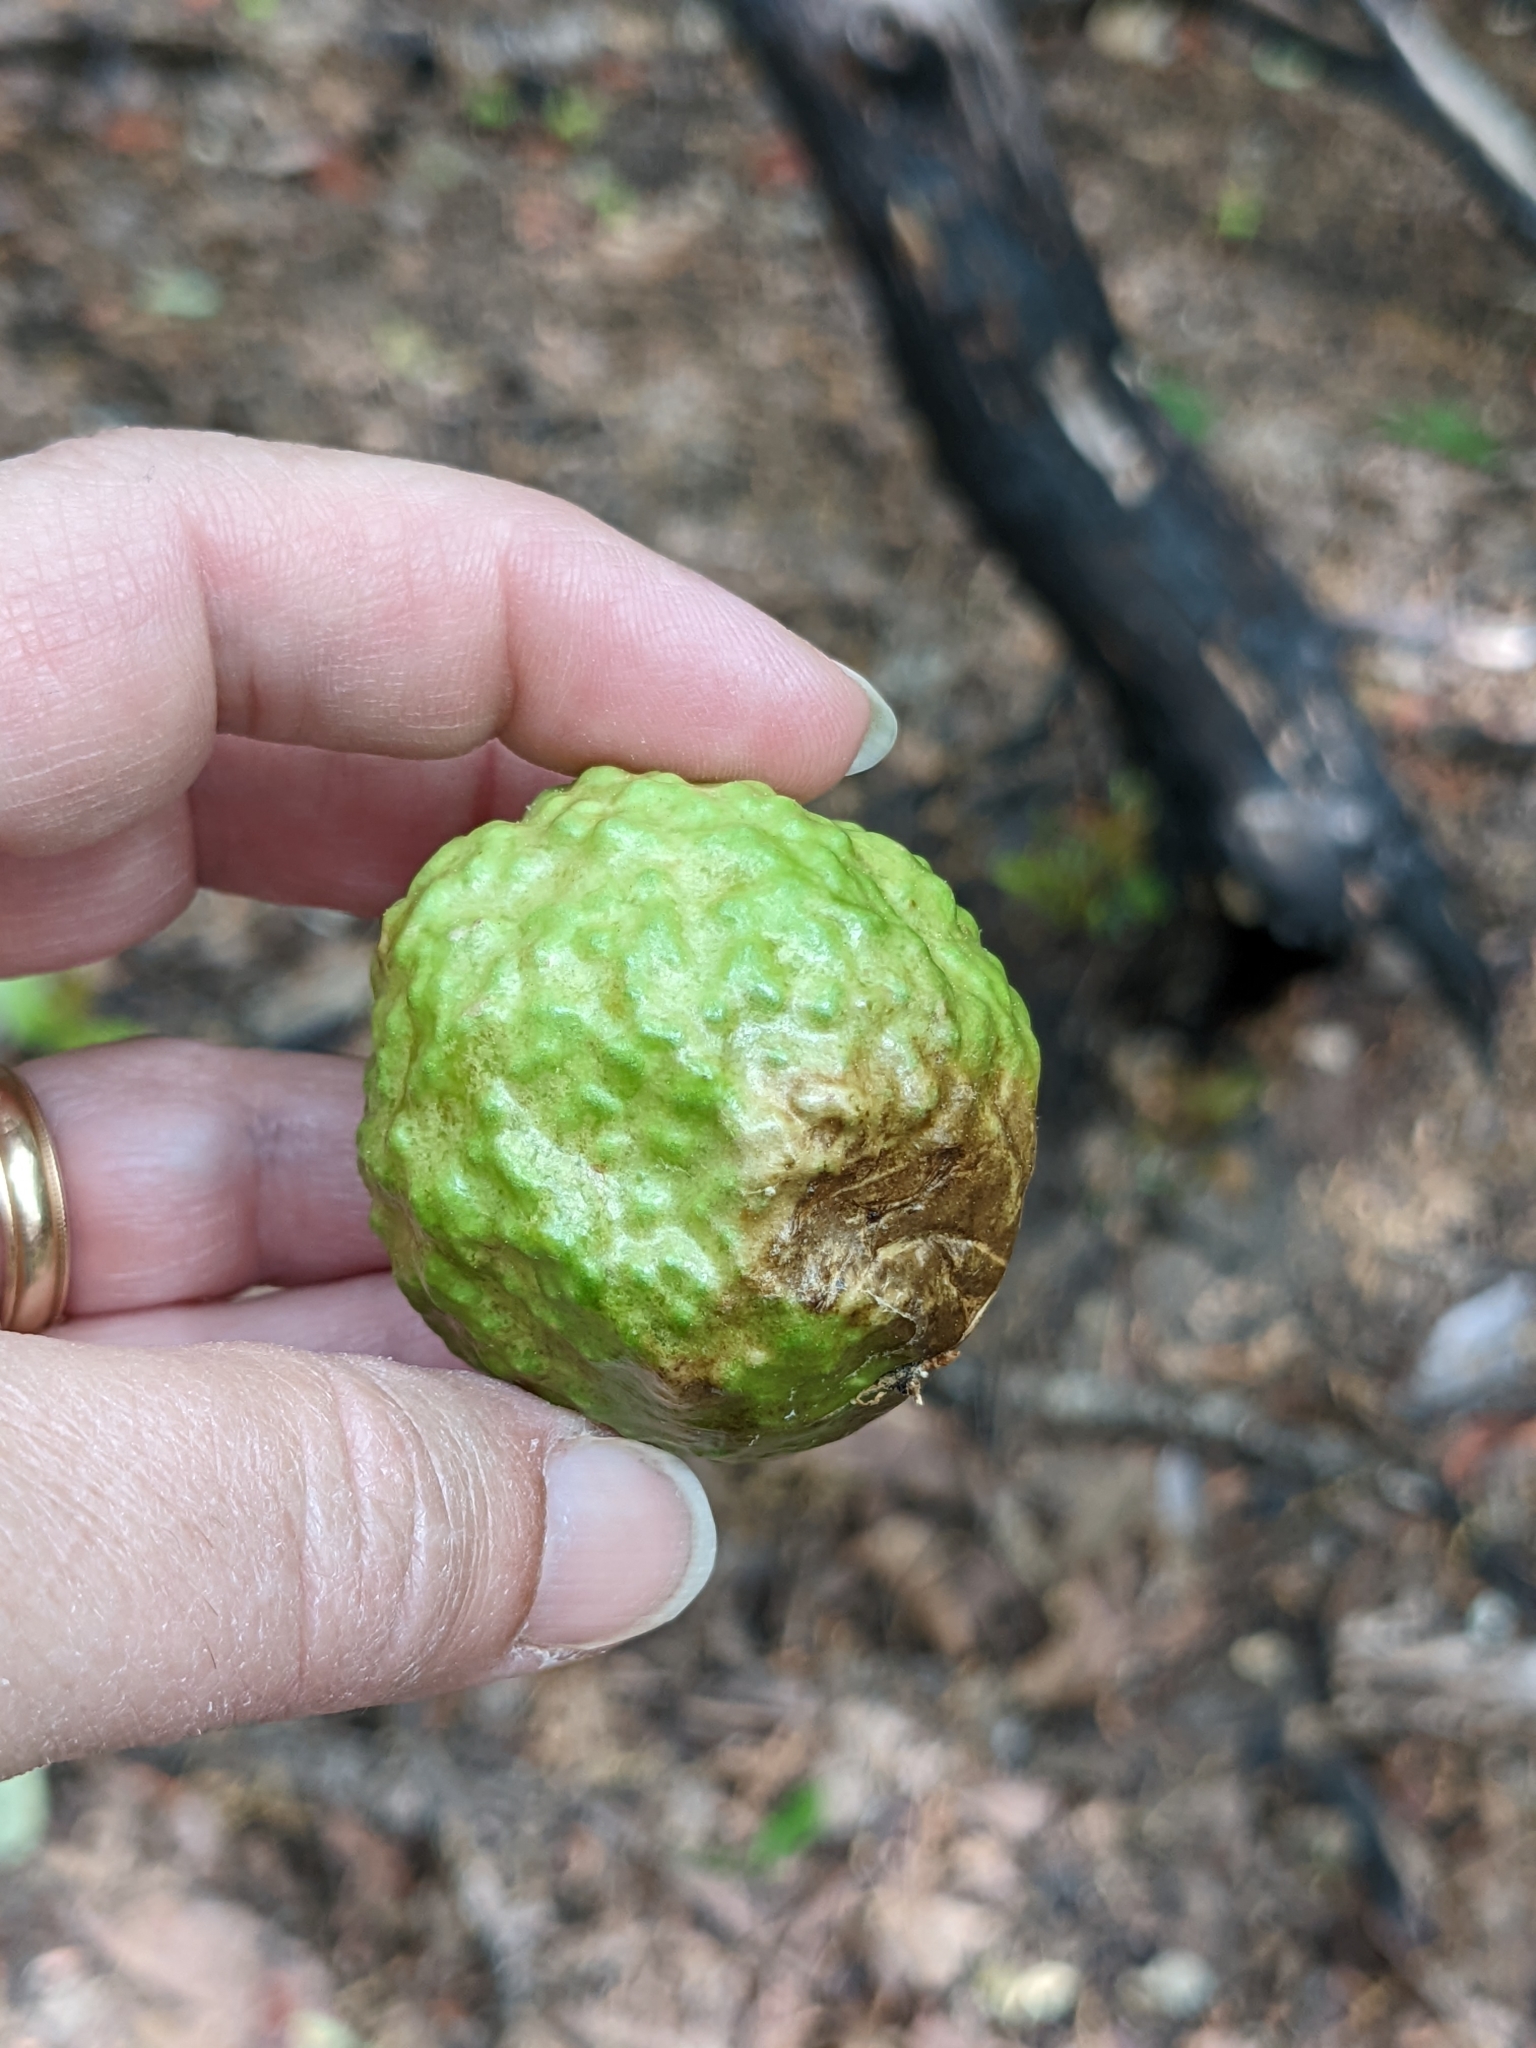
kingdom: Animalia
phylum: Arthropoda
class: Insecta
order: Hymenoptera
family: Cynipidae
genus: Amphibolips
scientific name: Amphibolips
